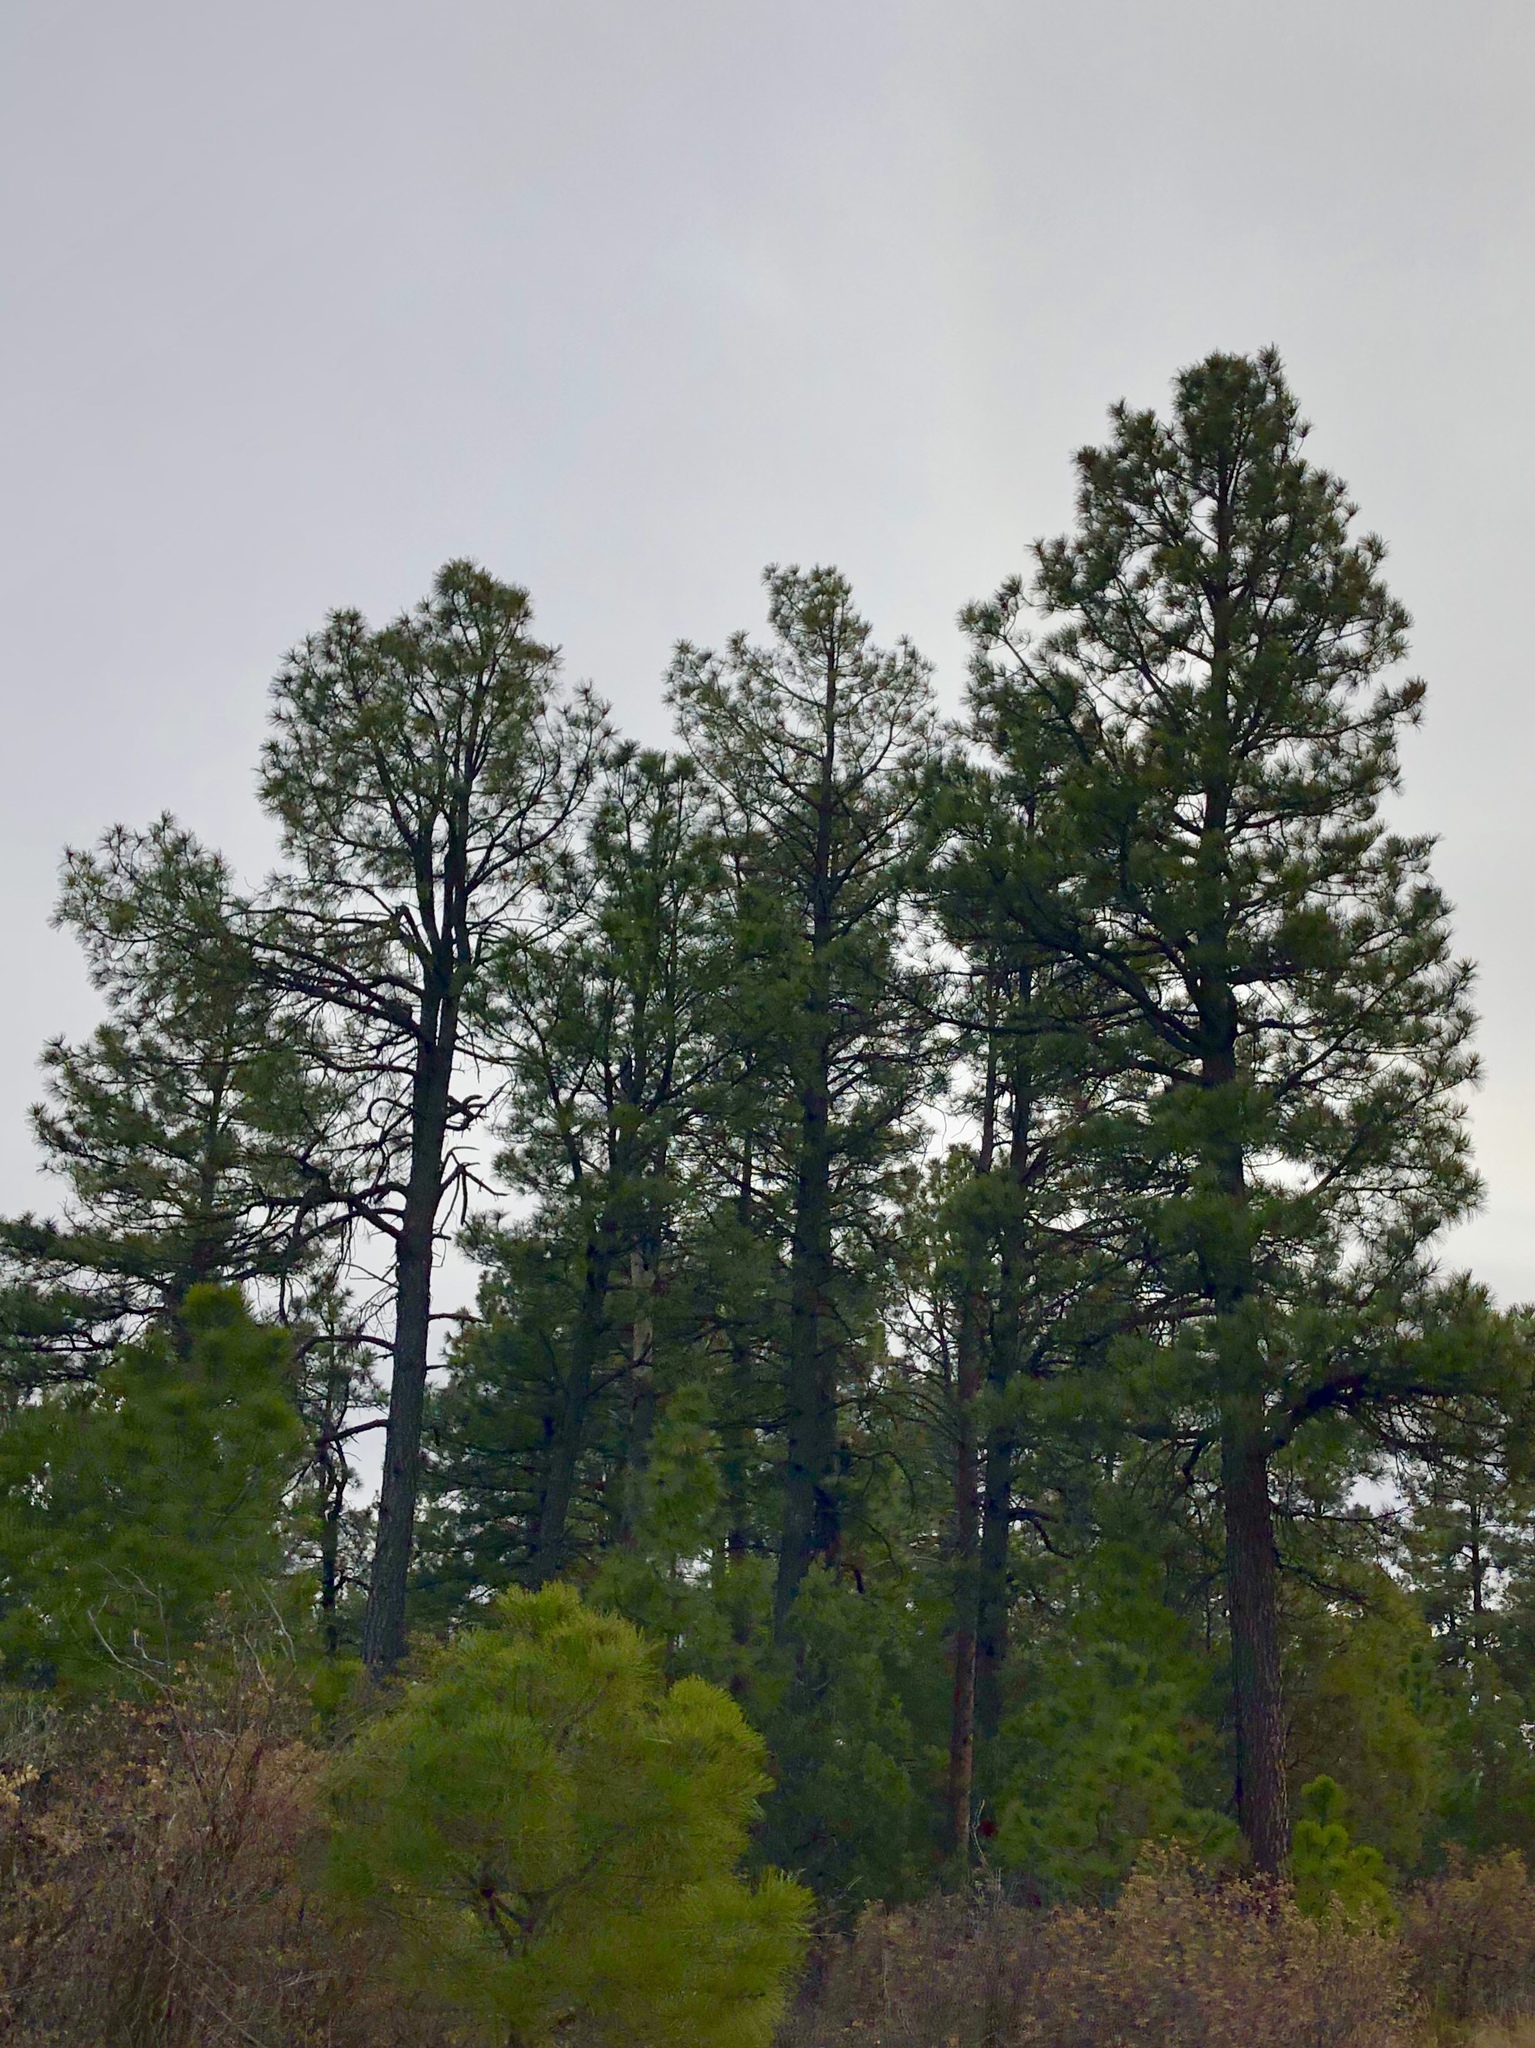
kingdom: Plantae
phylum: Tracheophyta
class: Pinopsida
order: Pinales
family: Pinaceae
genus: Pinus
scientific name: Pinus ponderosa
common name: Western yellow-pine
